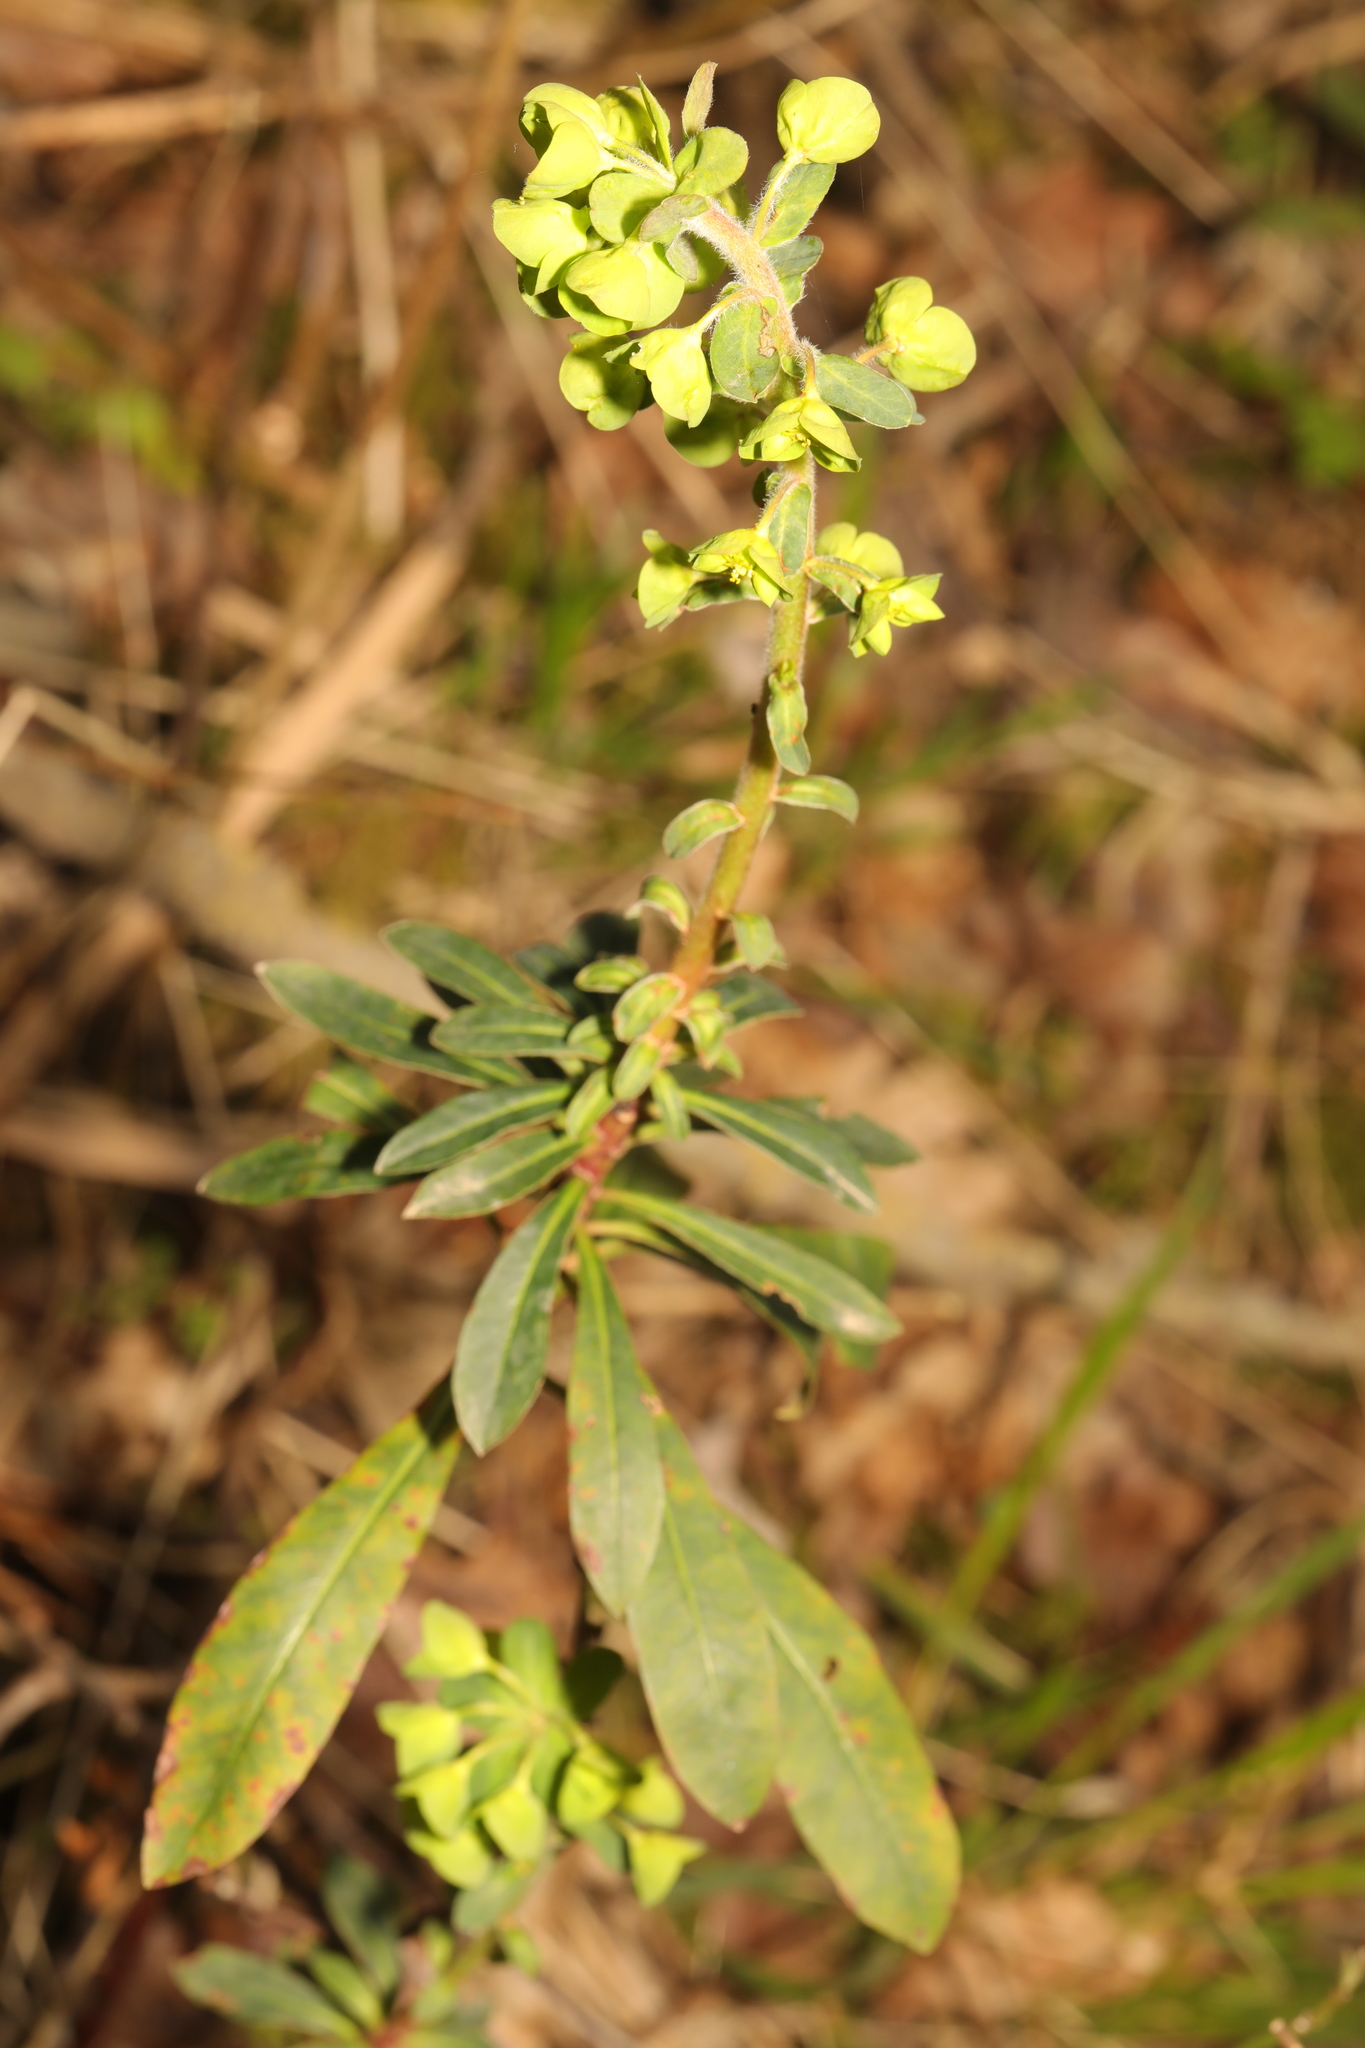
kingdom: Plantae
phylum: Tracheophyta
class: Magnoliopsida
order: Malpighiales
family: Euphorbiaceae
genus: Euphorbia
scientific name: Euphorbia amygdaloides
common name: Wood spurge
